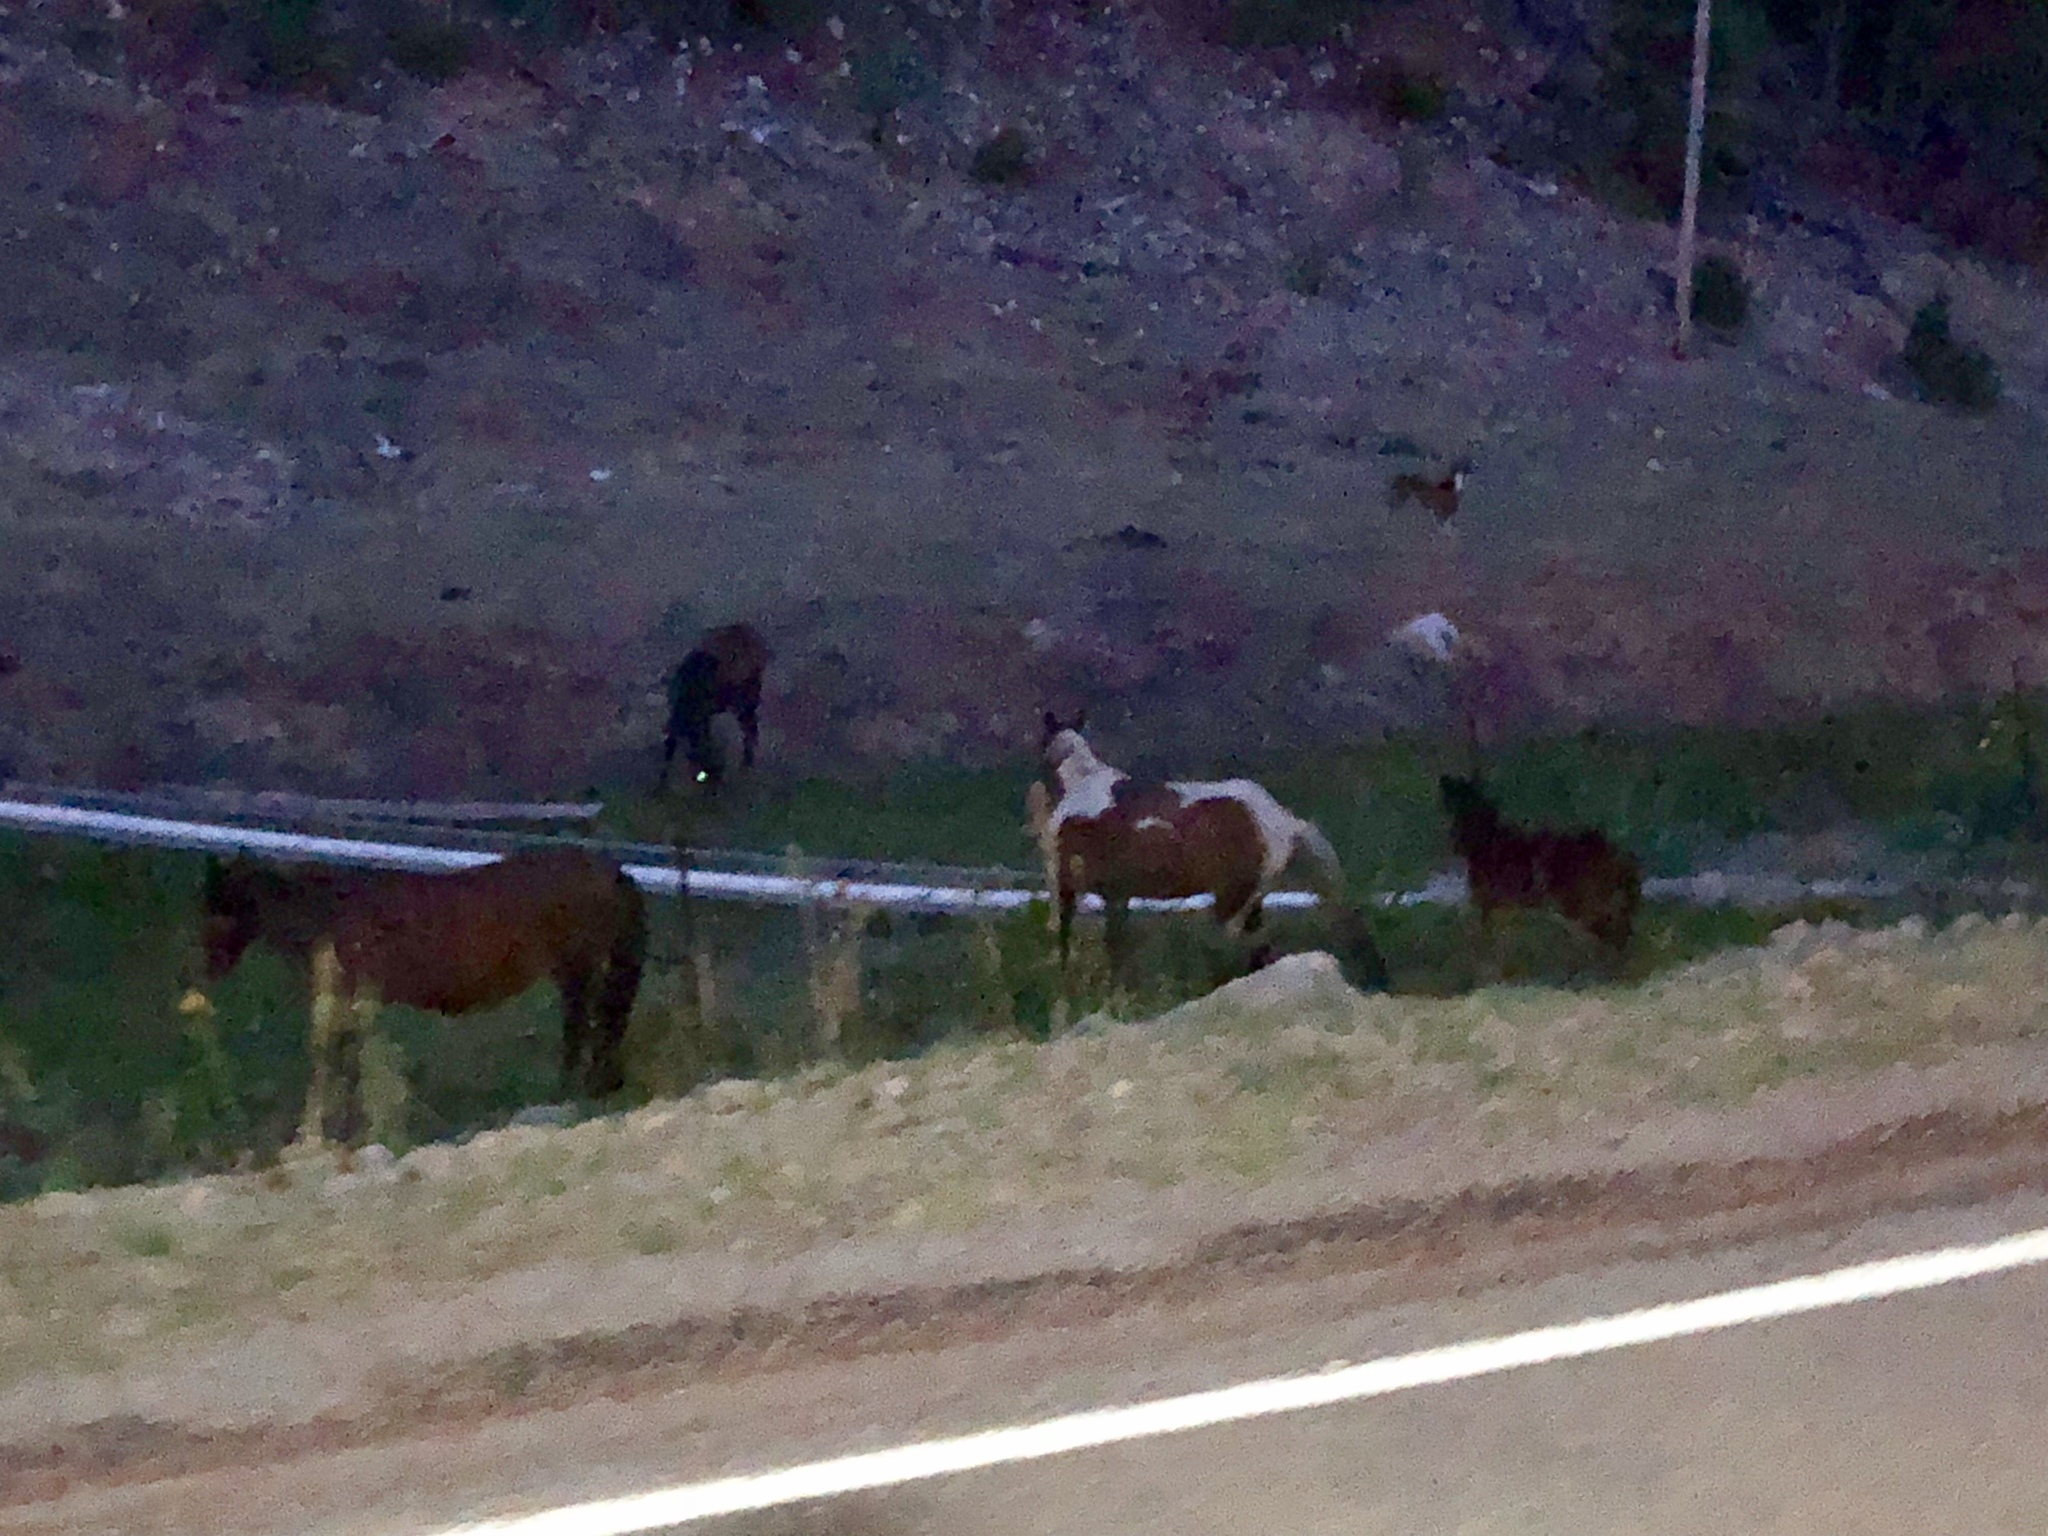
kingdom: Animalia
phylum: Chordata
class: Mammalia
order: Perissodactyla
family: Equidae
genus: Equus
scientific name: Equus caballus
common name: Horse
